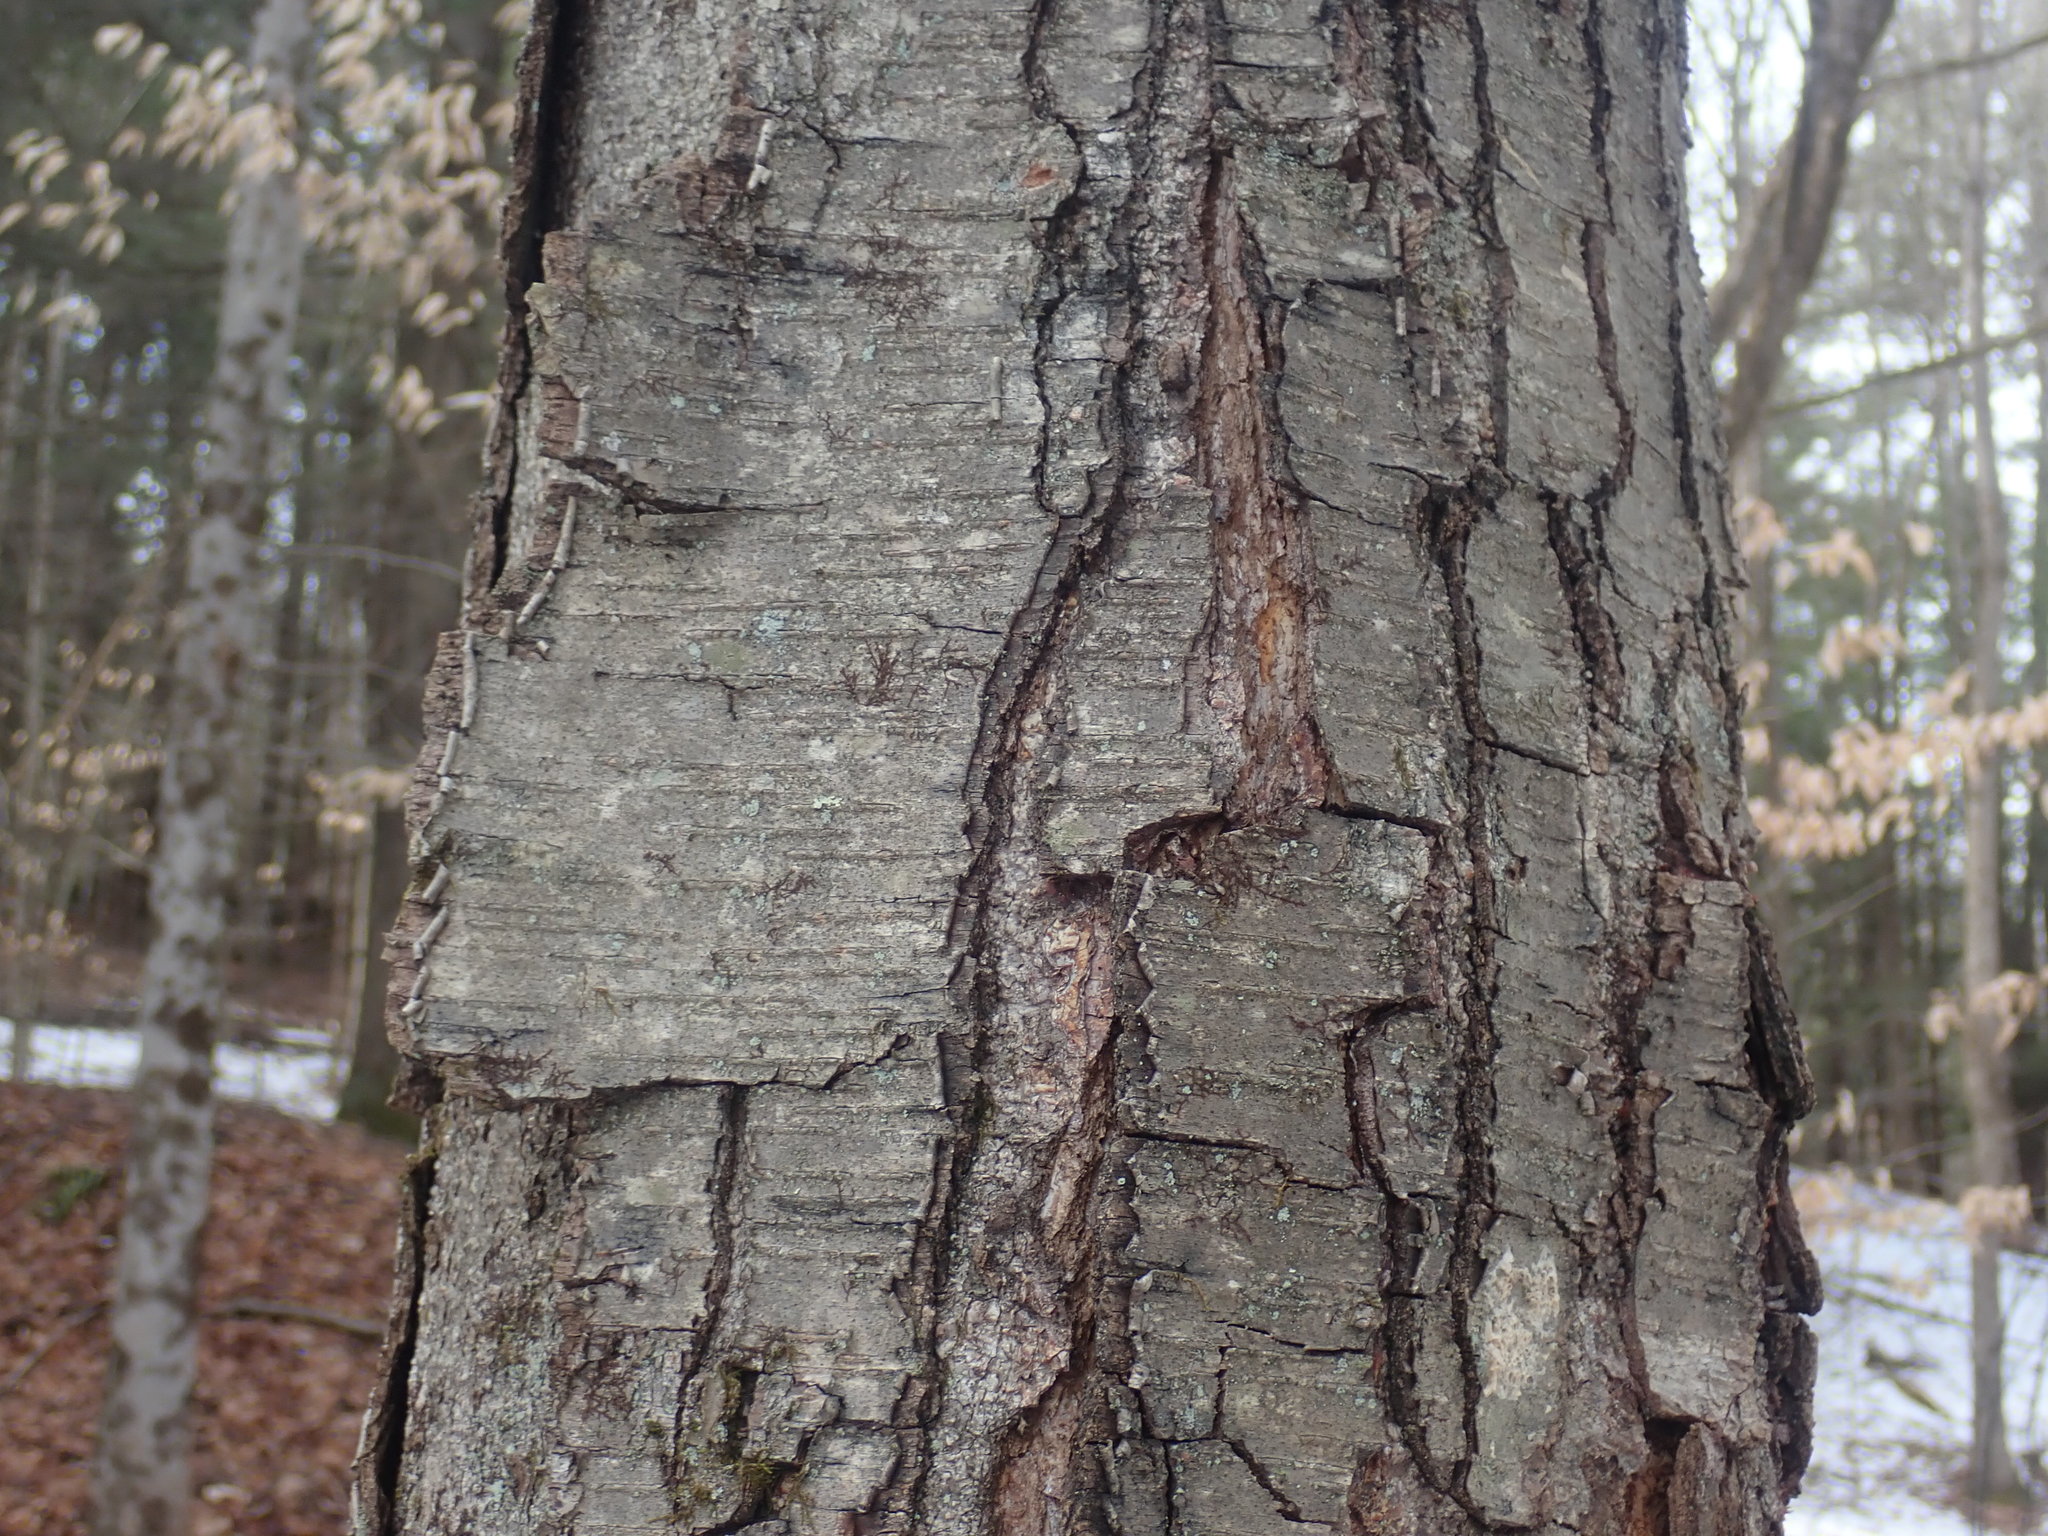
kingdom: Plantae
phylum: Tracheophyta
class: Magnoliopsida
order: Fagales
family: Betulaceae
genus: Betula
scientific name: Betula lenta
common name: Black birch
